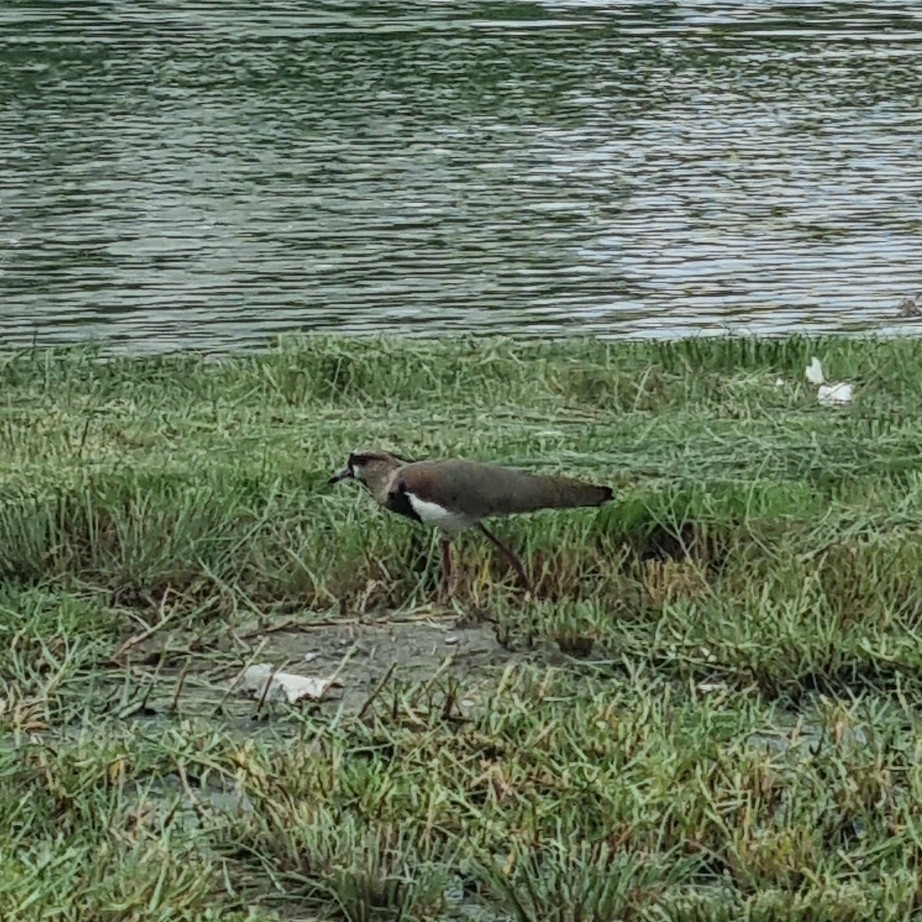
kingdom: Animalia
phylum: Chordata
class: Aves
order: Charadriiformes
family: Charadriidae
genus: Vanellus
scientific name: Vanellus chilensis
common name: Southern lapwing
